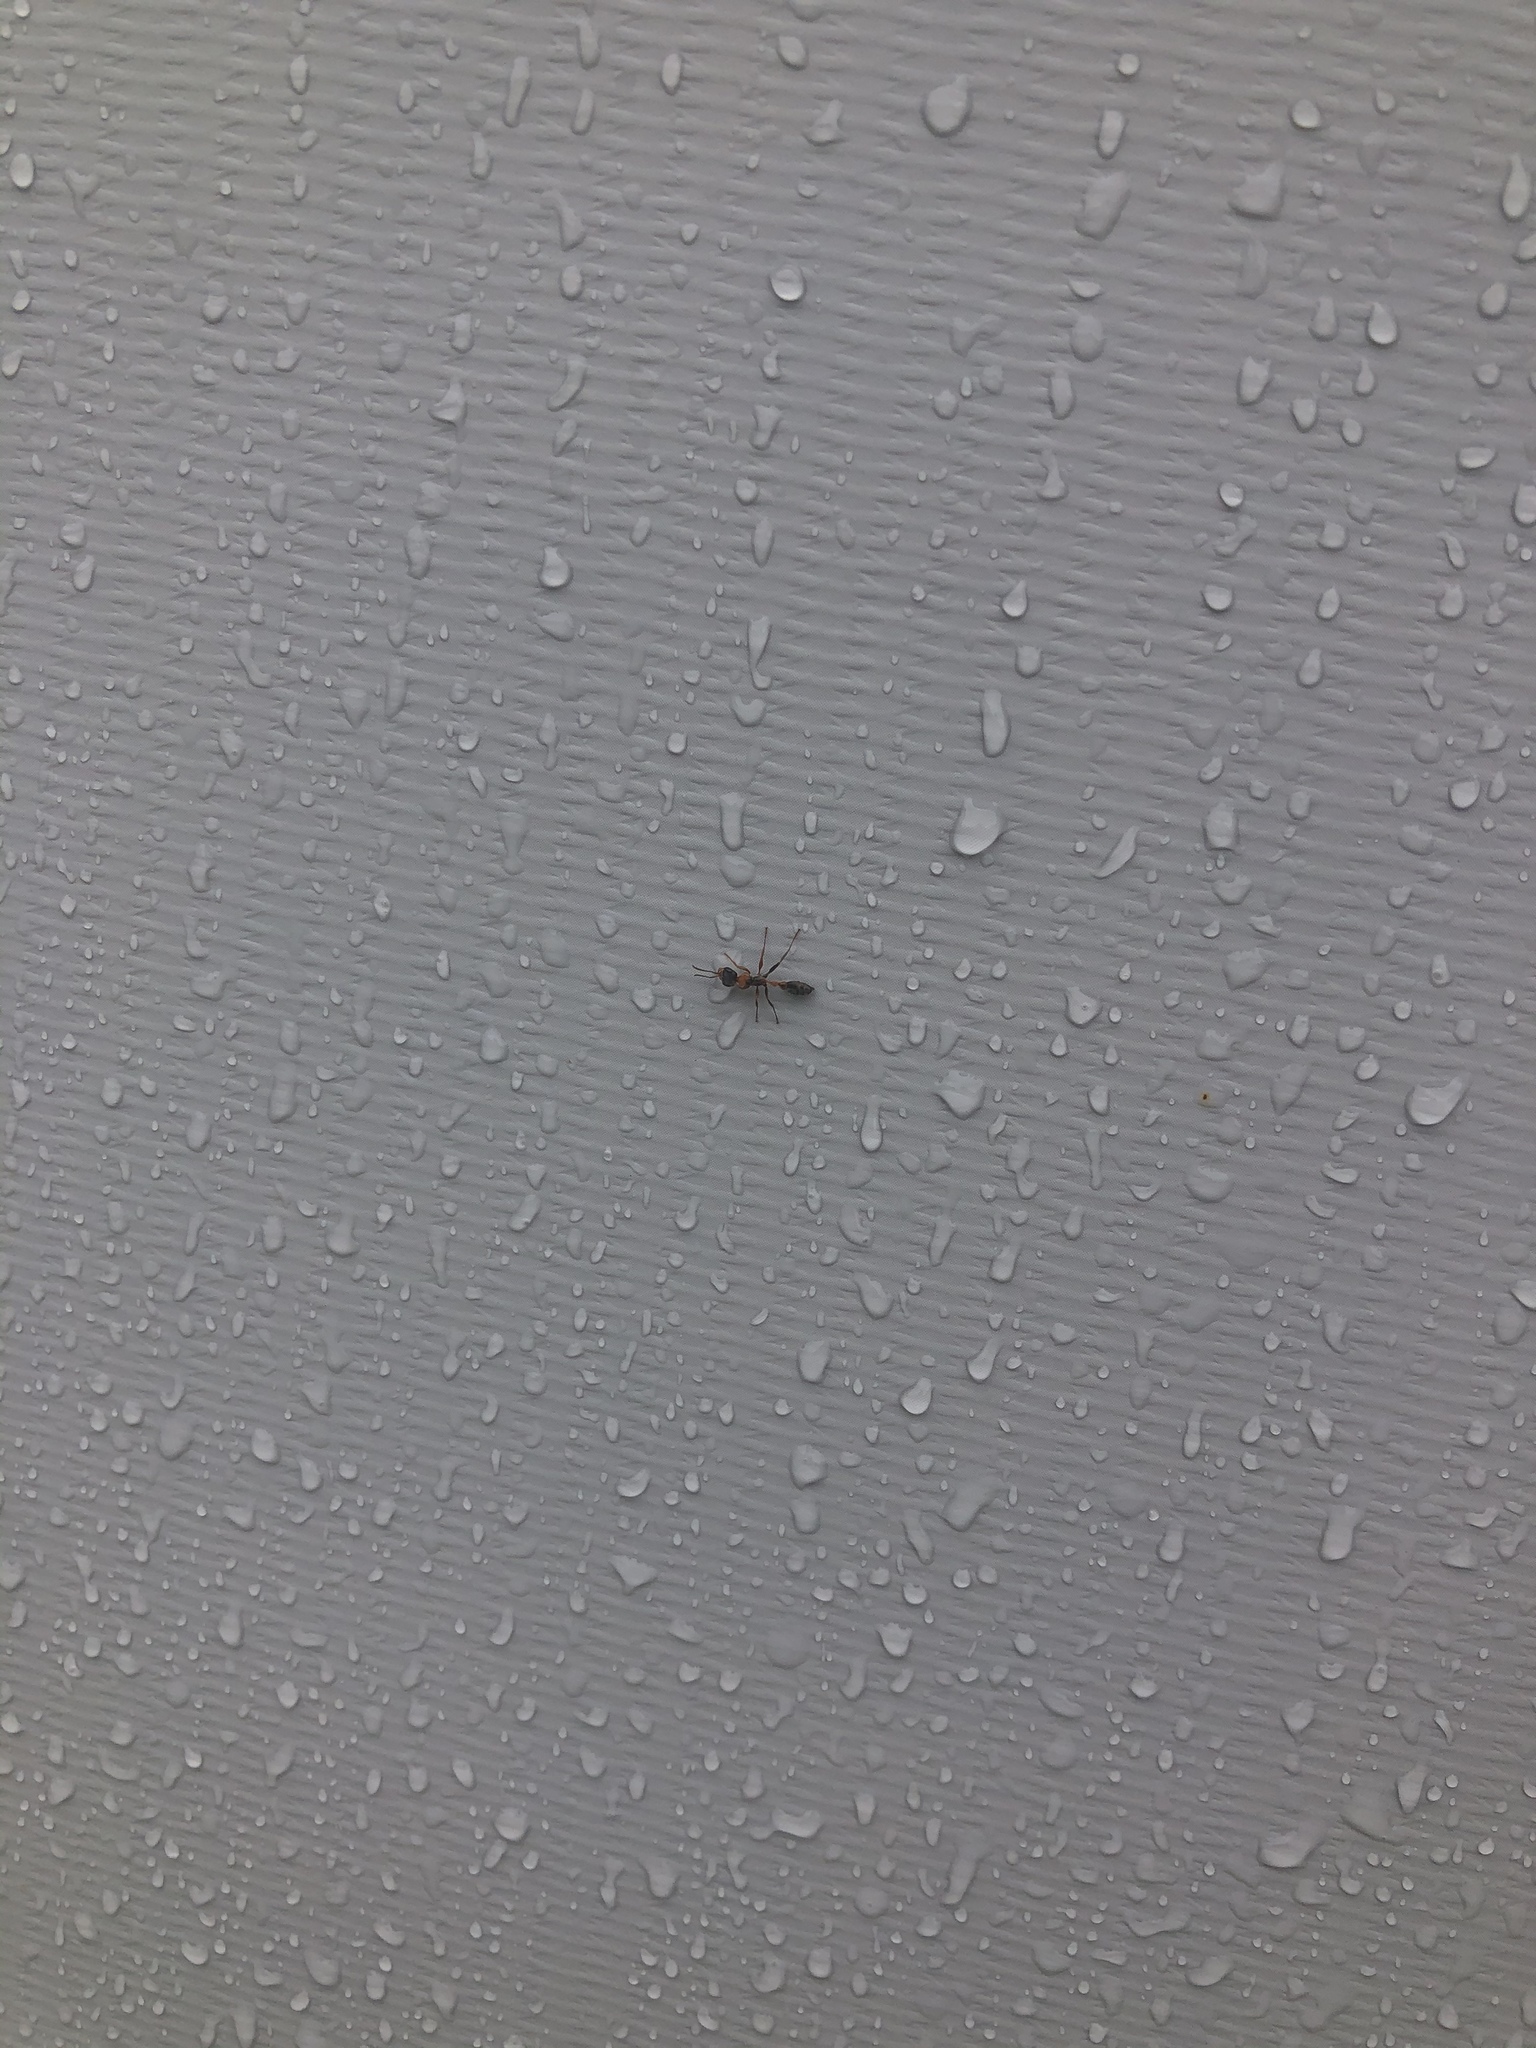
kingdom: Animalia
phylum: Arthropoda
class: Insecta
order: Hymenoptera
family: Formicidae
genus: Pseudomyrmex
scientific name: Pseudomyrmex gracilis
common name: Graceful twig ant
